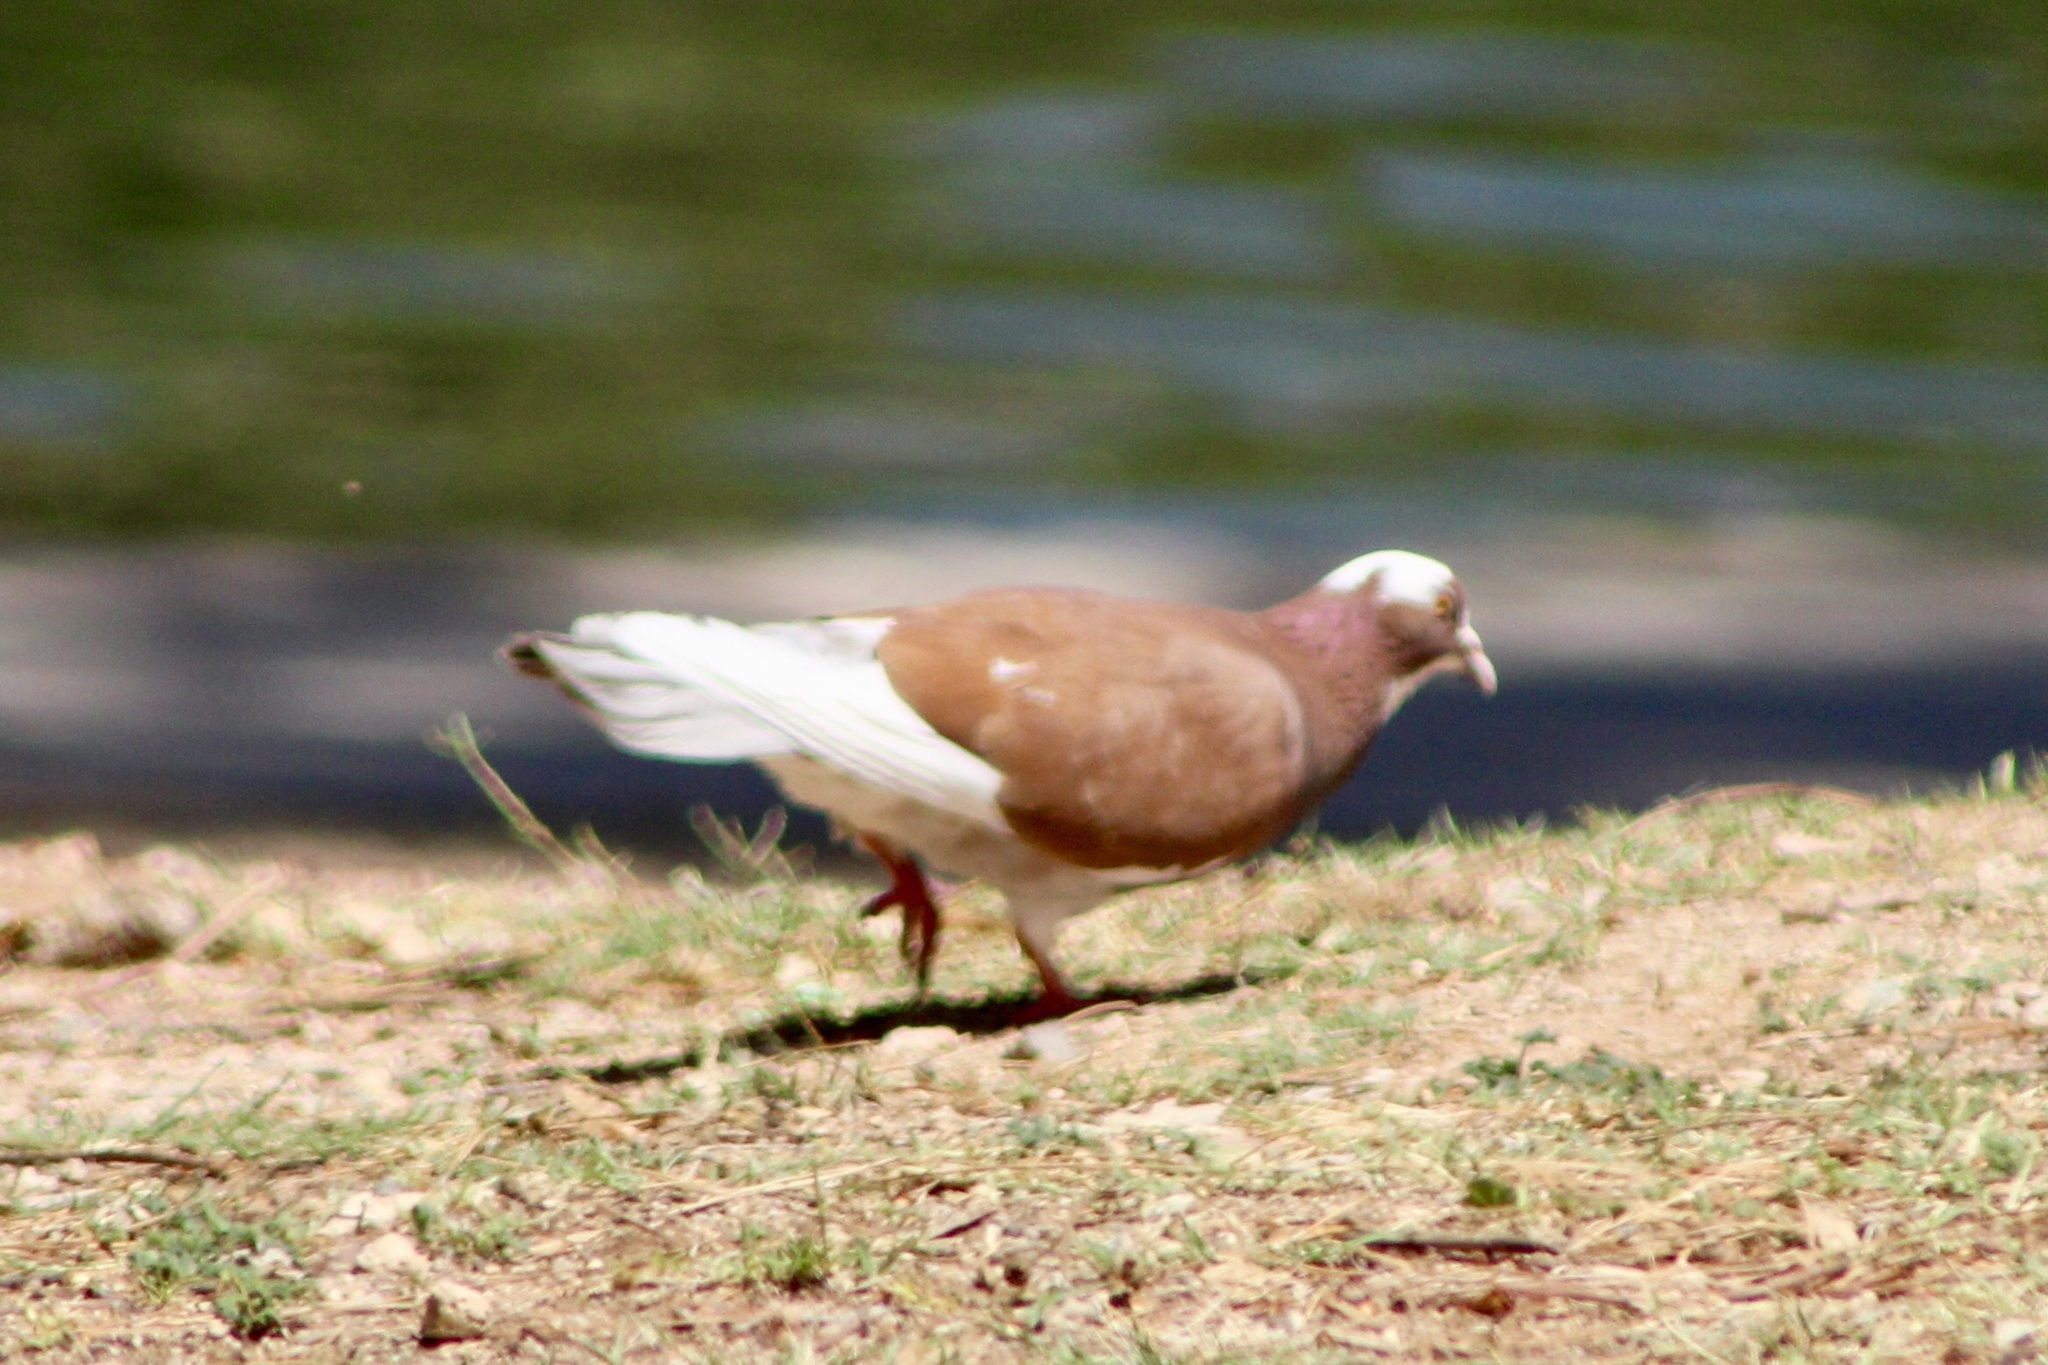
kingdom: Animalia
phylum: Chordata
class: Aves
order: Columbiformes
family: Columbidae
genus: Columba
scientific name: Columba livia
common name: Rock pigeon
